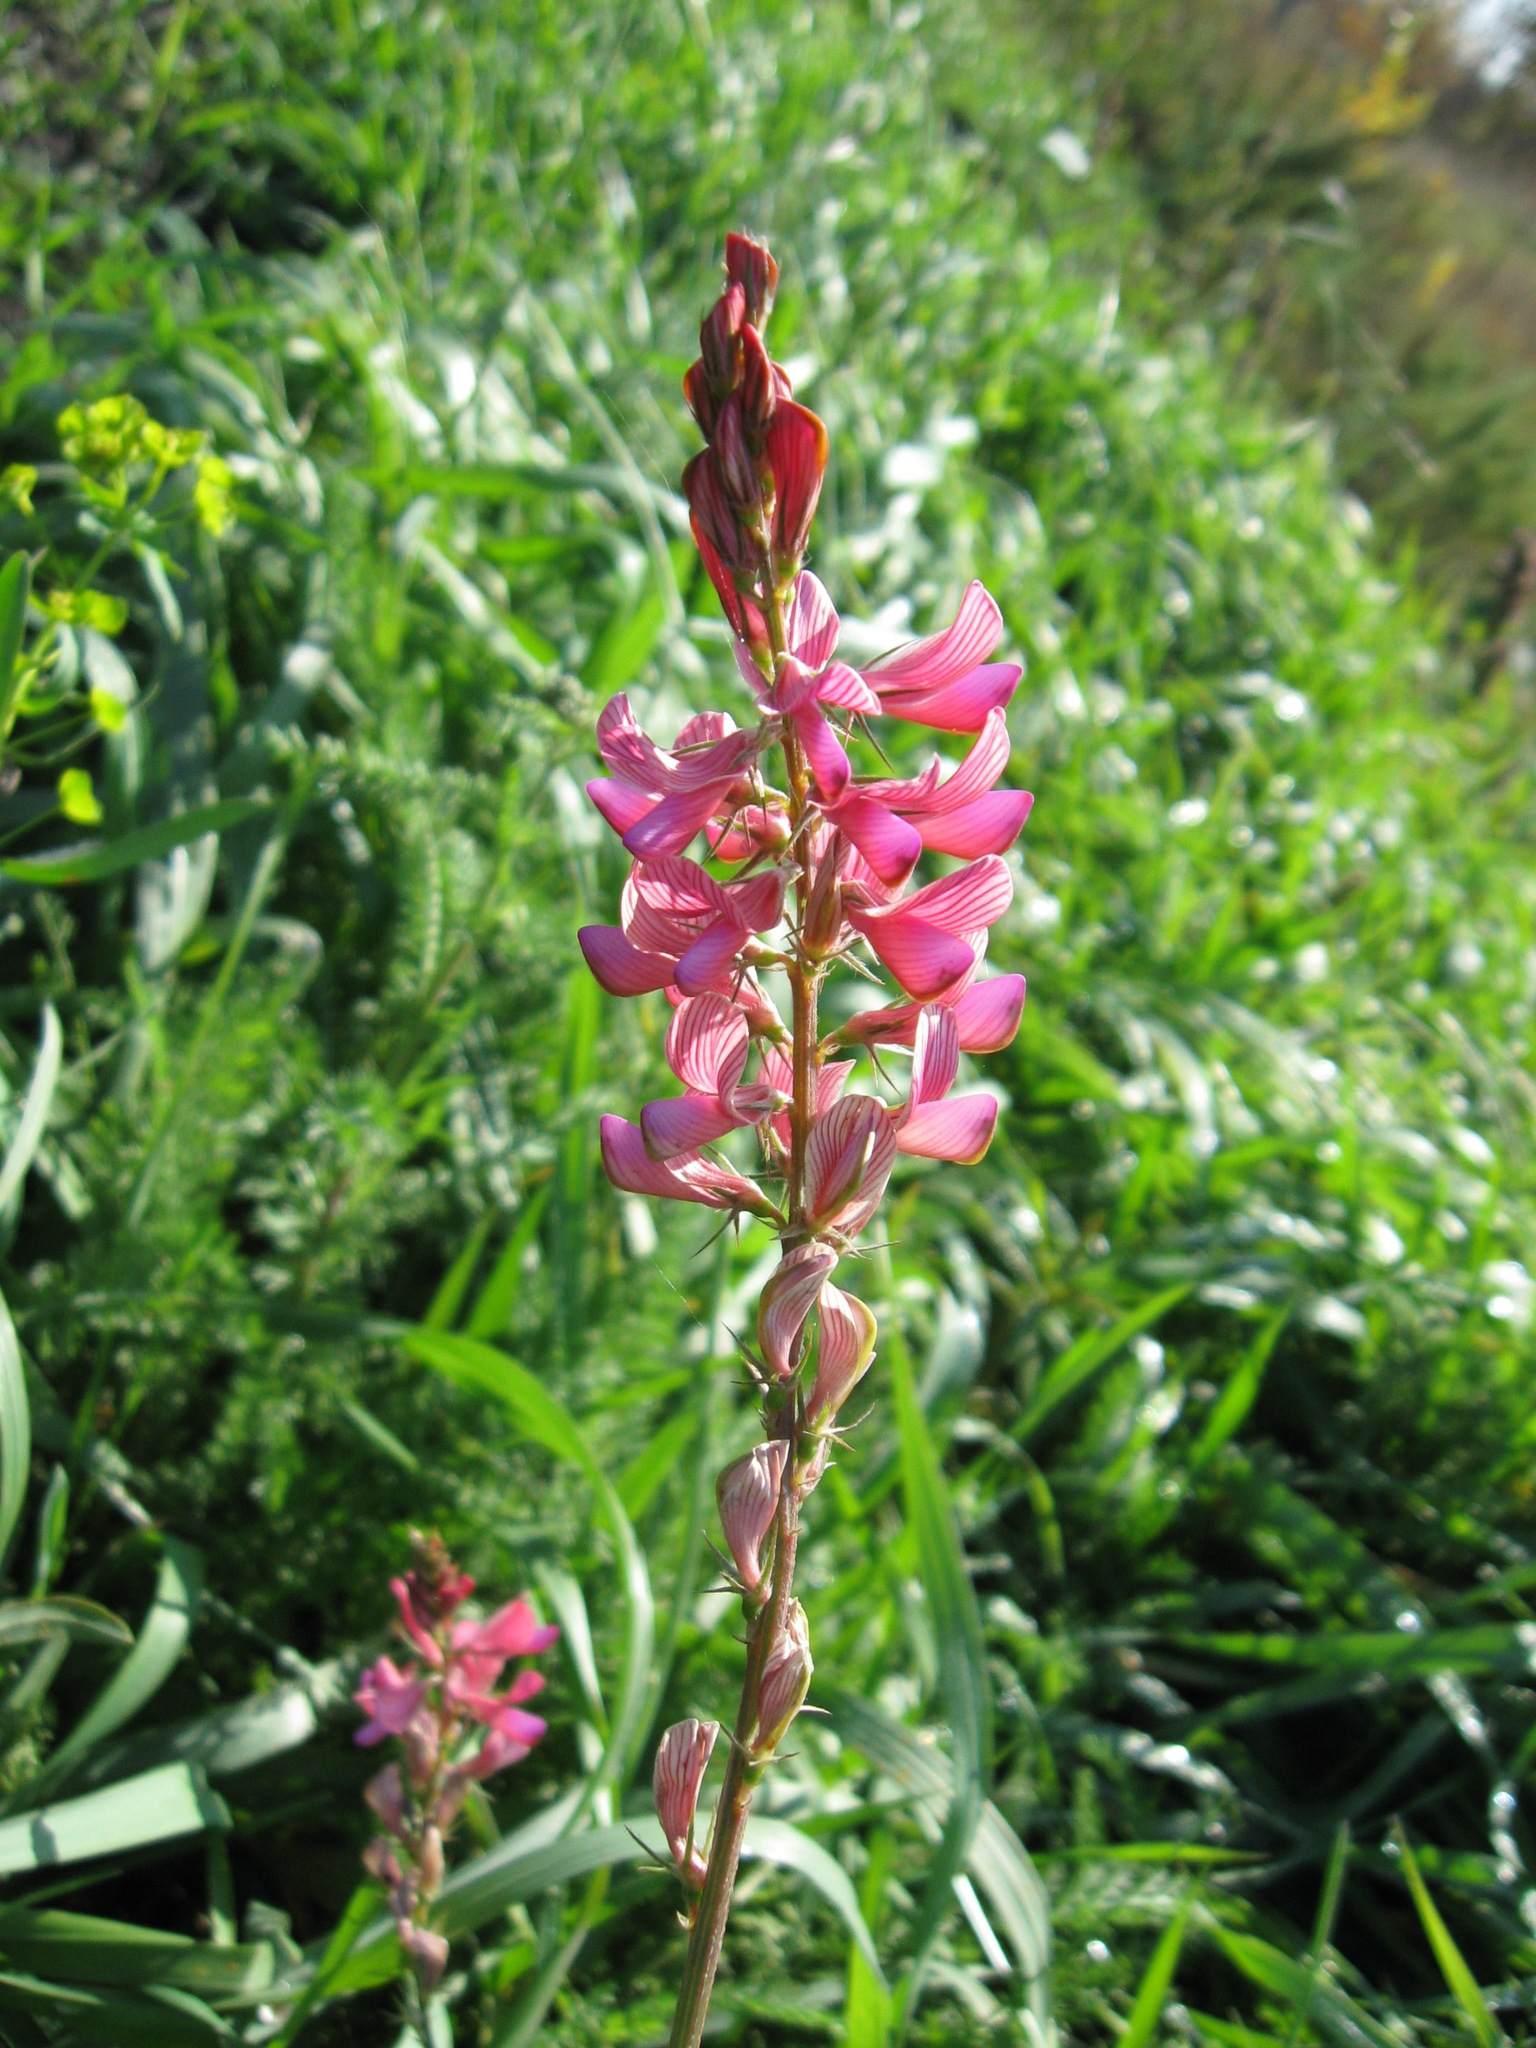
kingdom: Plantae
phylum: Tracheophyta
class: Magnoliopsida
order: Fabales
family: Fabaceae
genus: Onobrychis
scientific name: Onobrychis viciifolia
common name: Sainfoin
